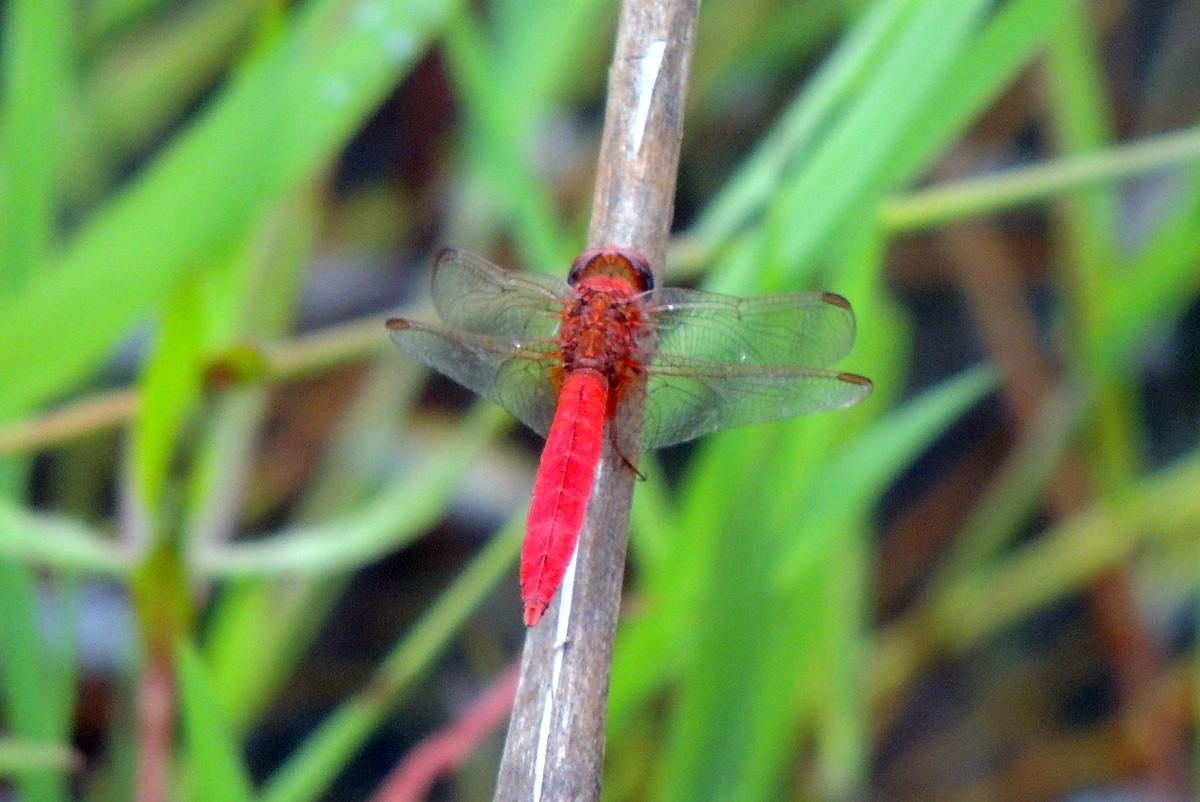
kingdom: Animalia
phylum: Arthropoda
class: Insecta
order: Odonata
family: Libellulidae
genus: Crocothemis
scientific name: Crocothemis servilia
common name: Scarlet skimmer
